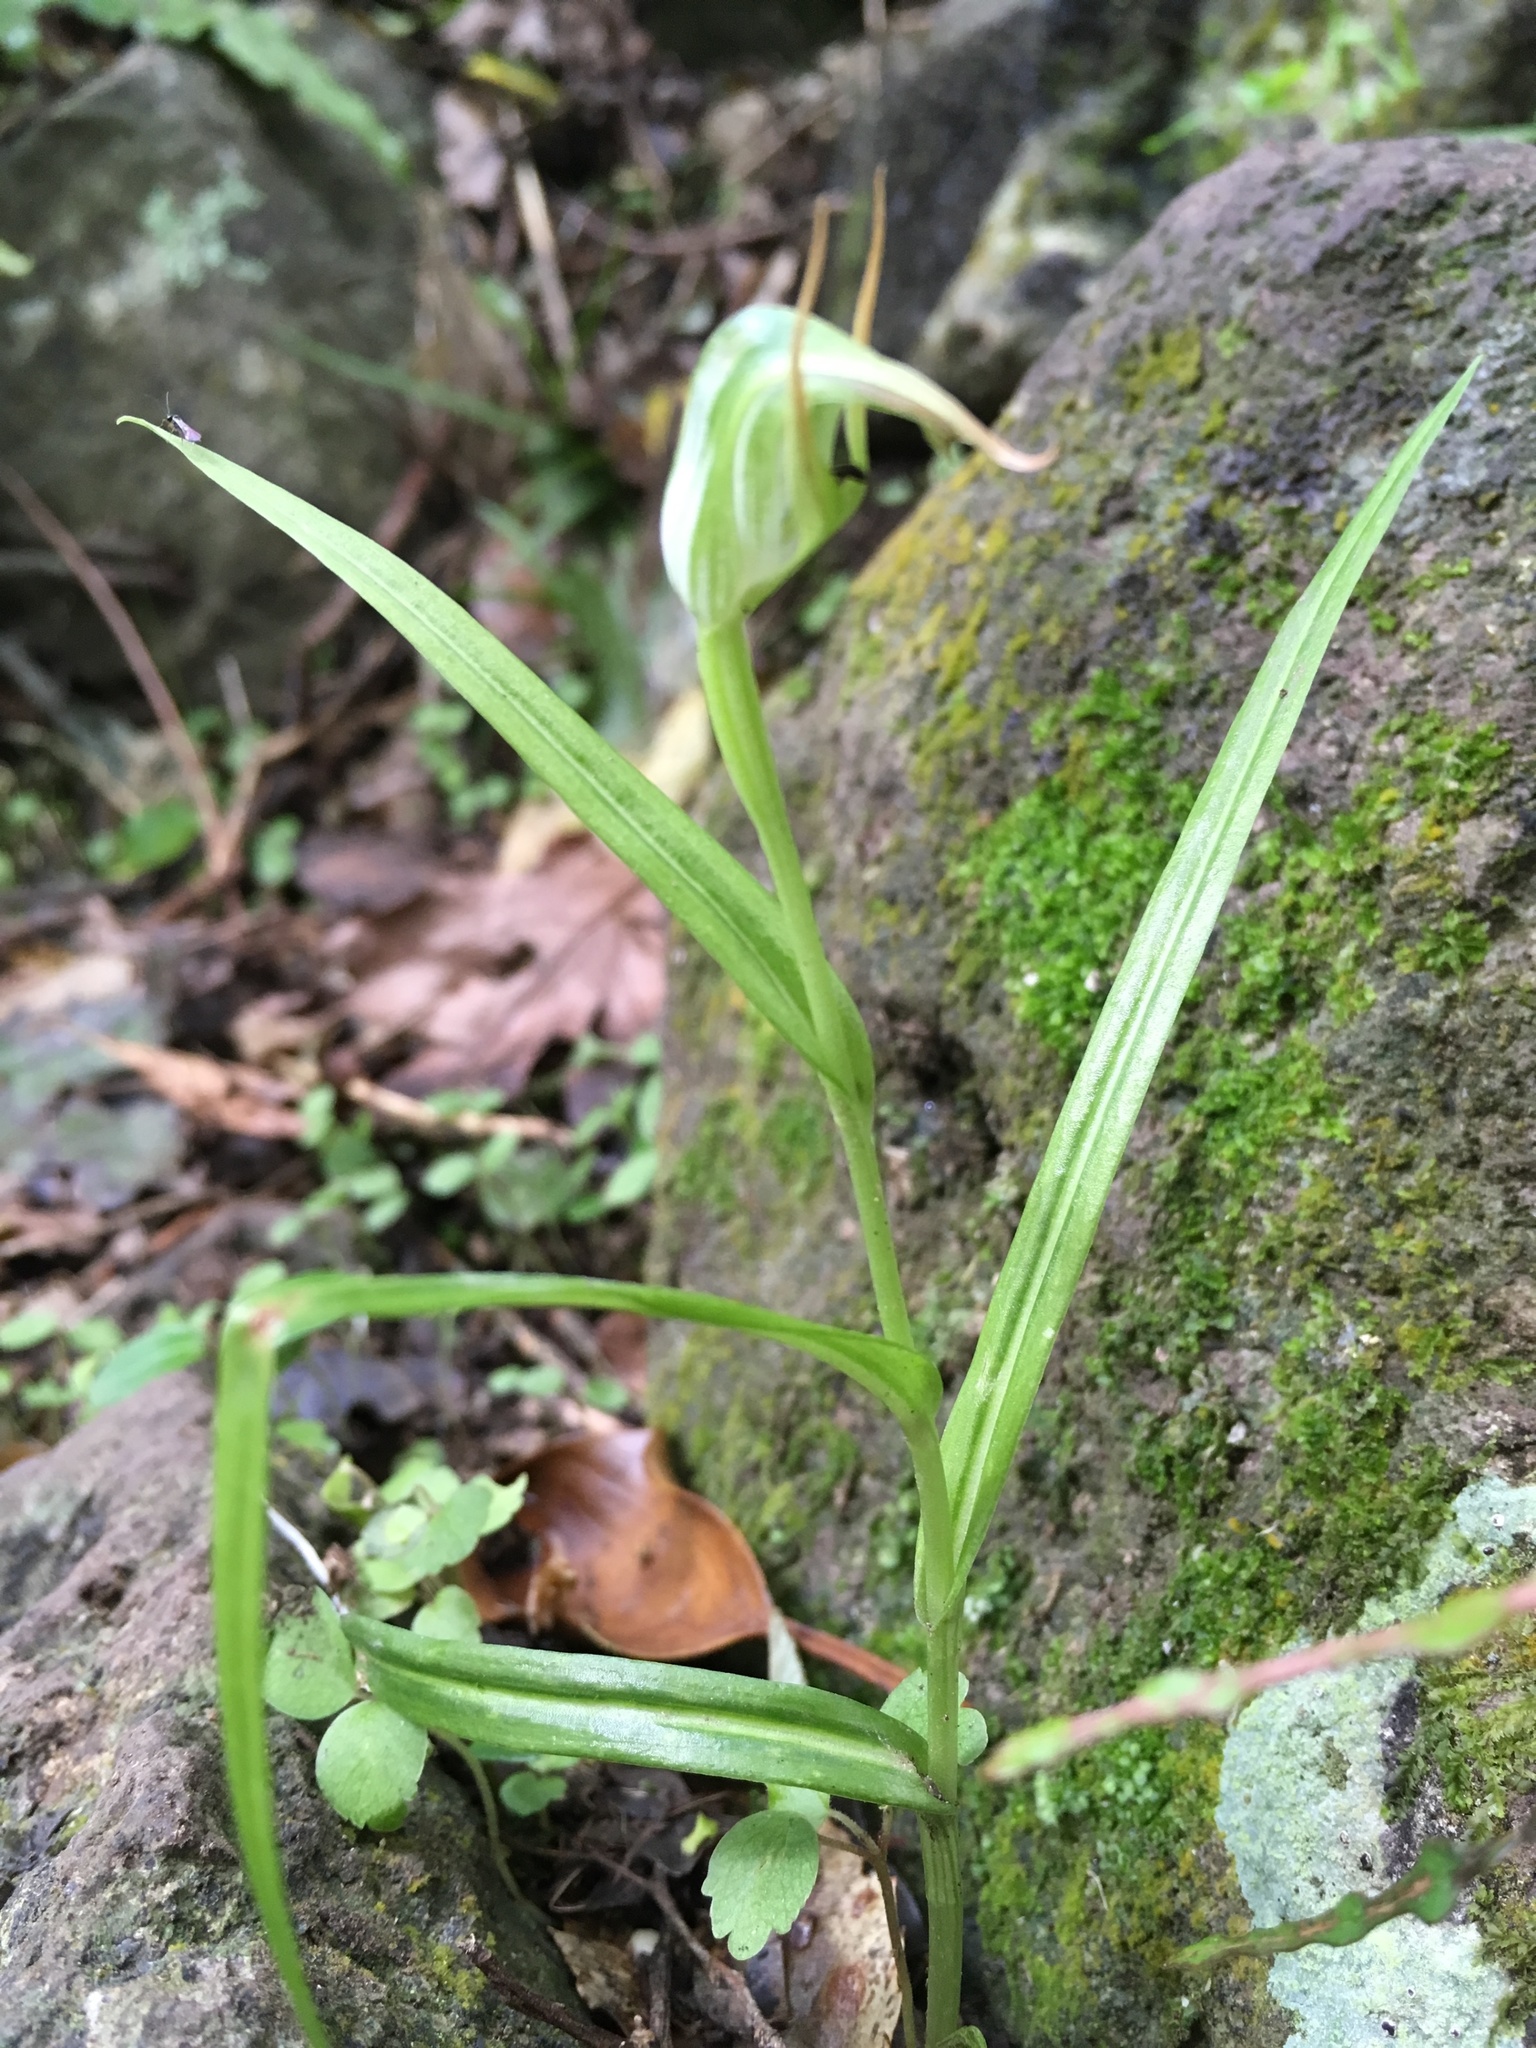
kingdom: Plantae
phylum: Tracheophyta
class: Liliopsida
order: Asparagales
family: Orchidaceae
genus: Pterostylis
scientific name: Pterostylis graminea
